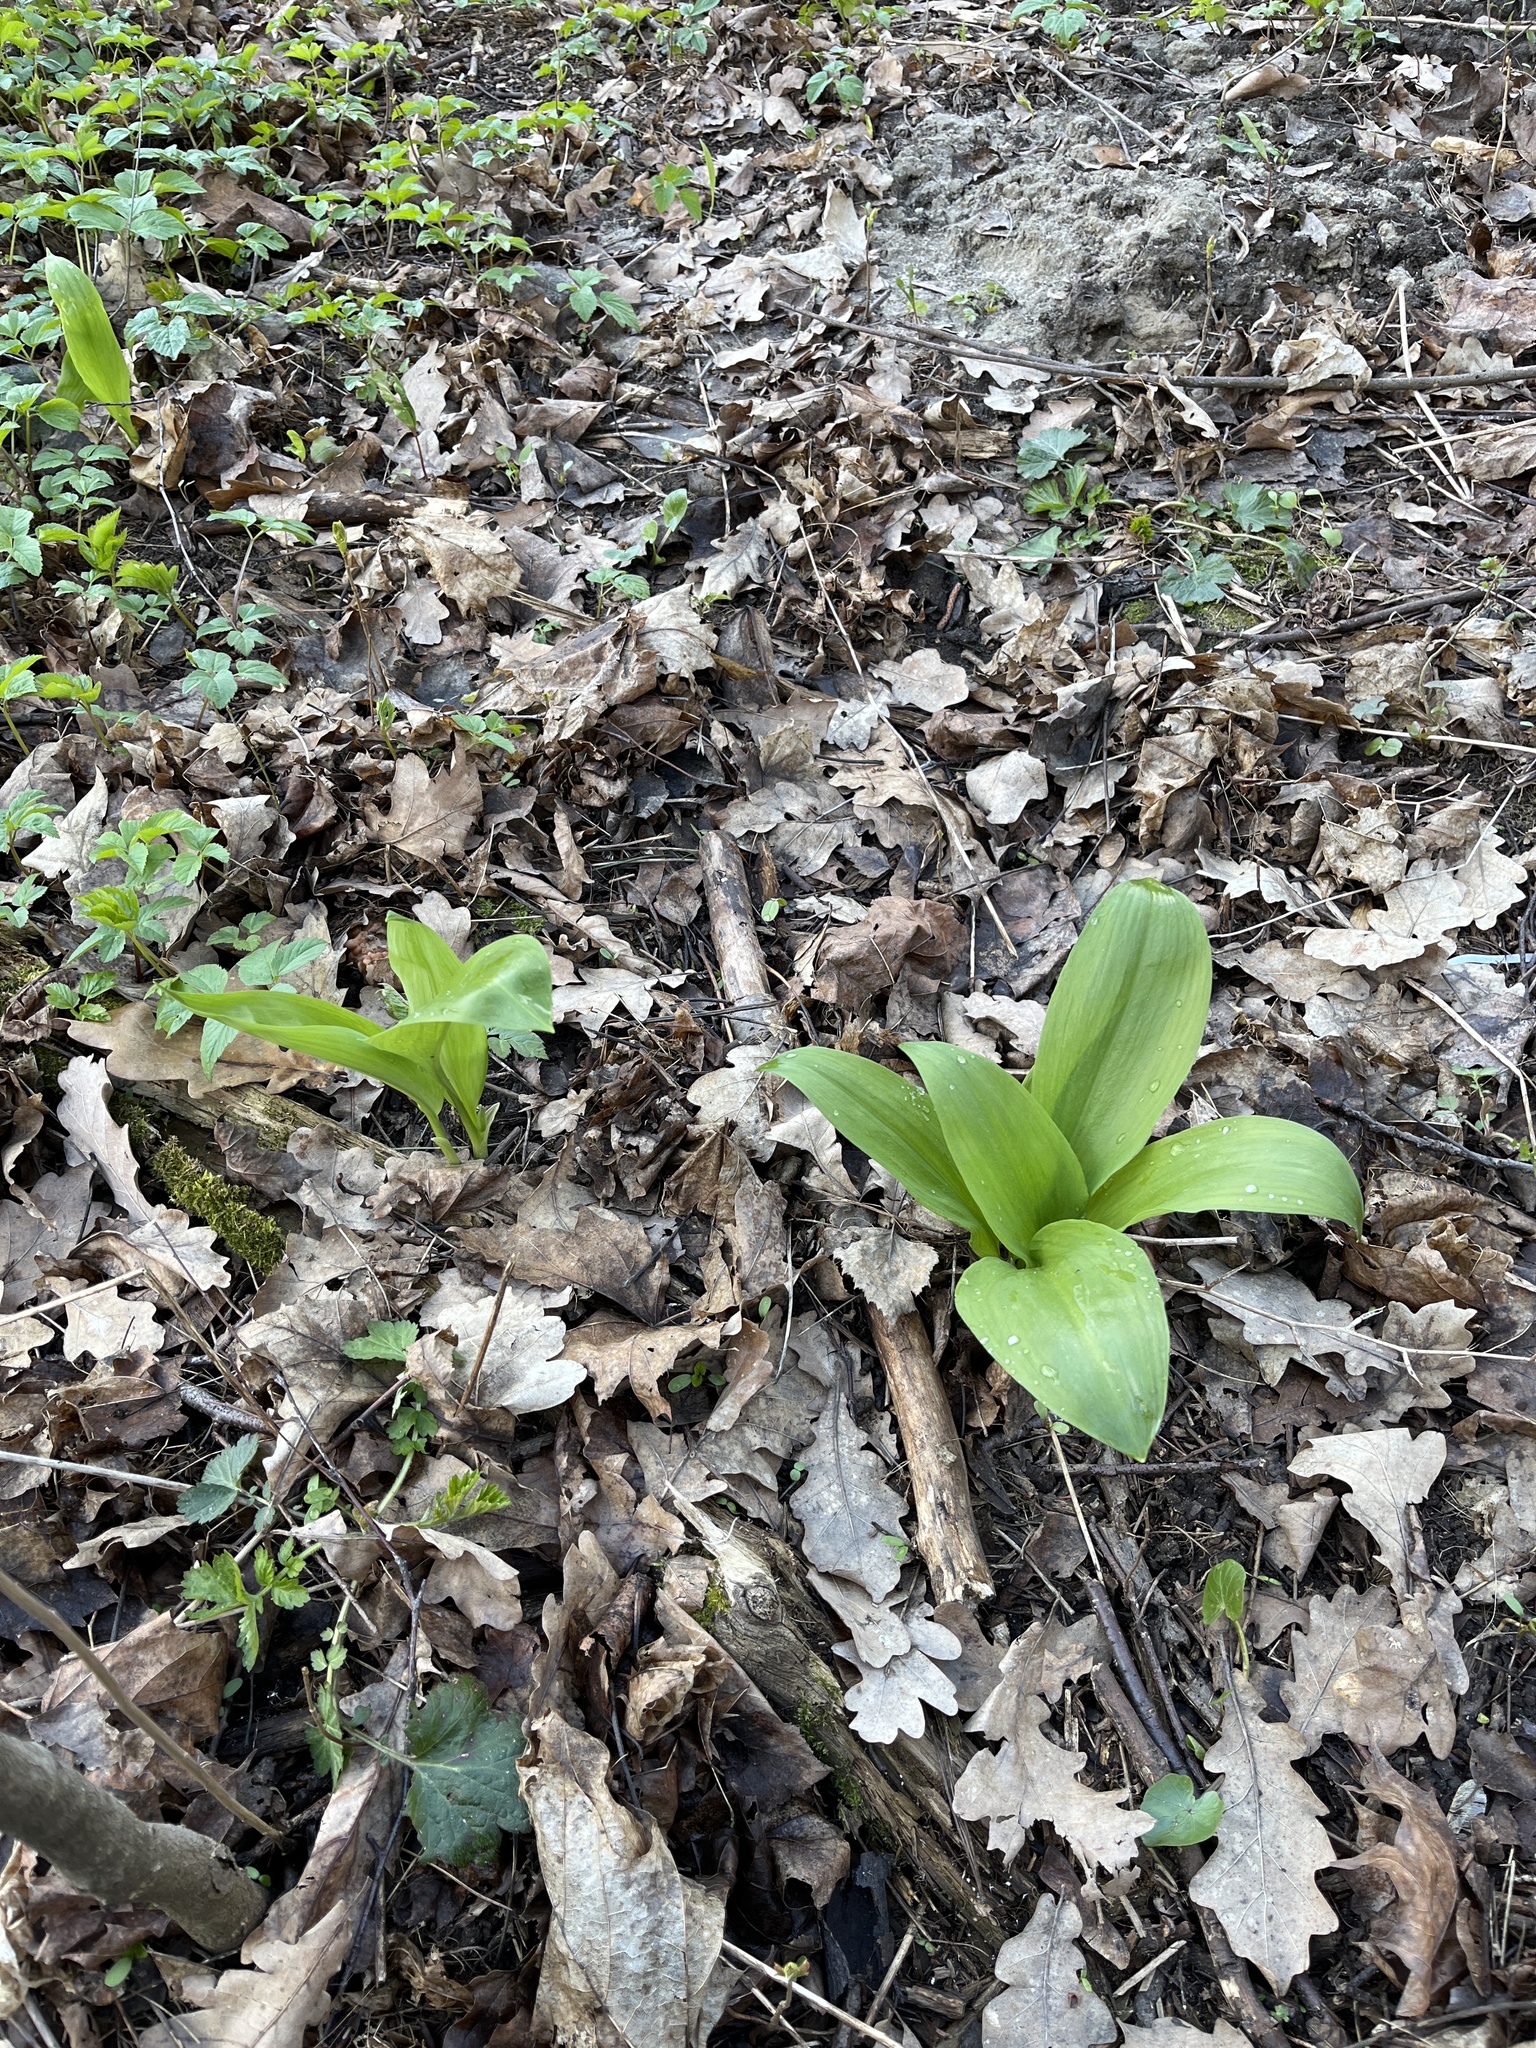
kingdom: Plantae
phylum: Tracheophyta
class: Liliopsida
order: Asparagales
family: Amaryllidaceae
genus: Allium
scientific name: Allium ursinum
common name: Ramsons
